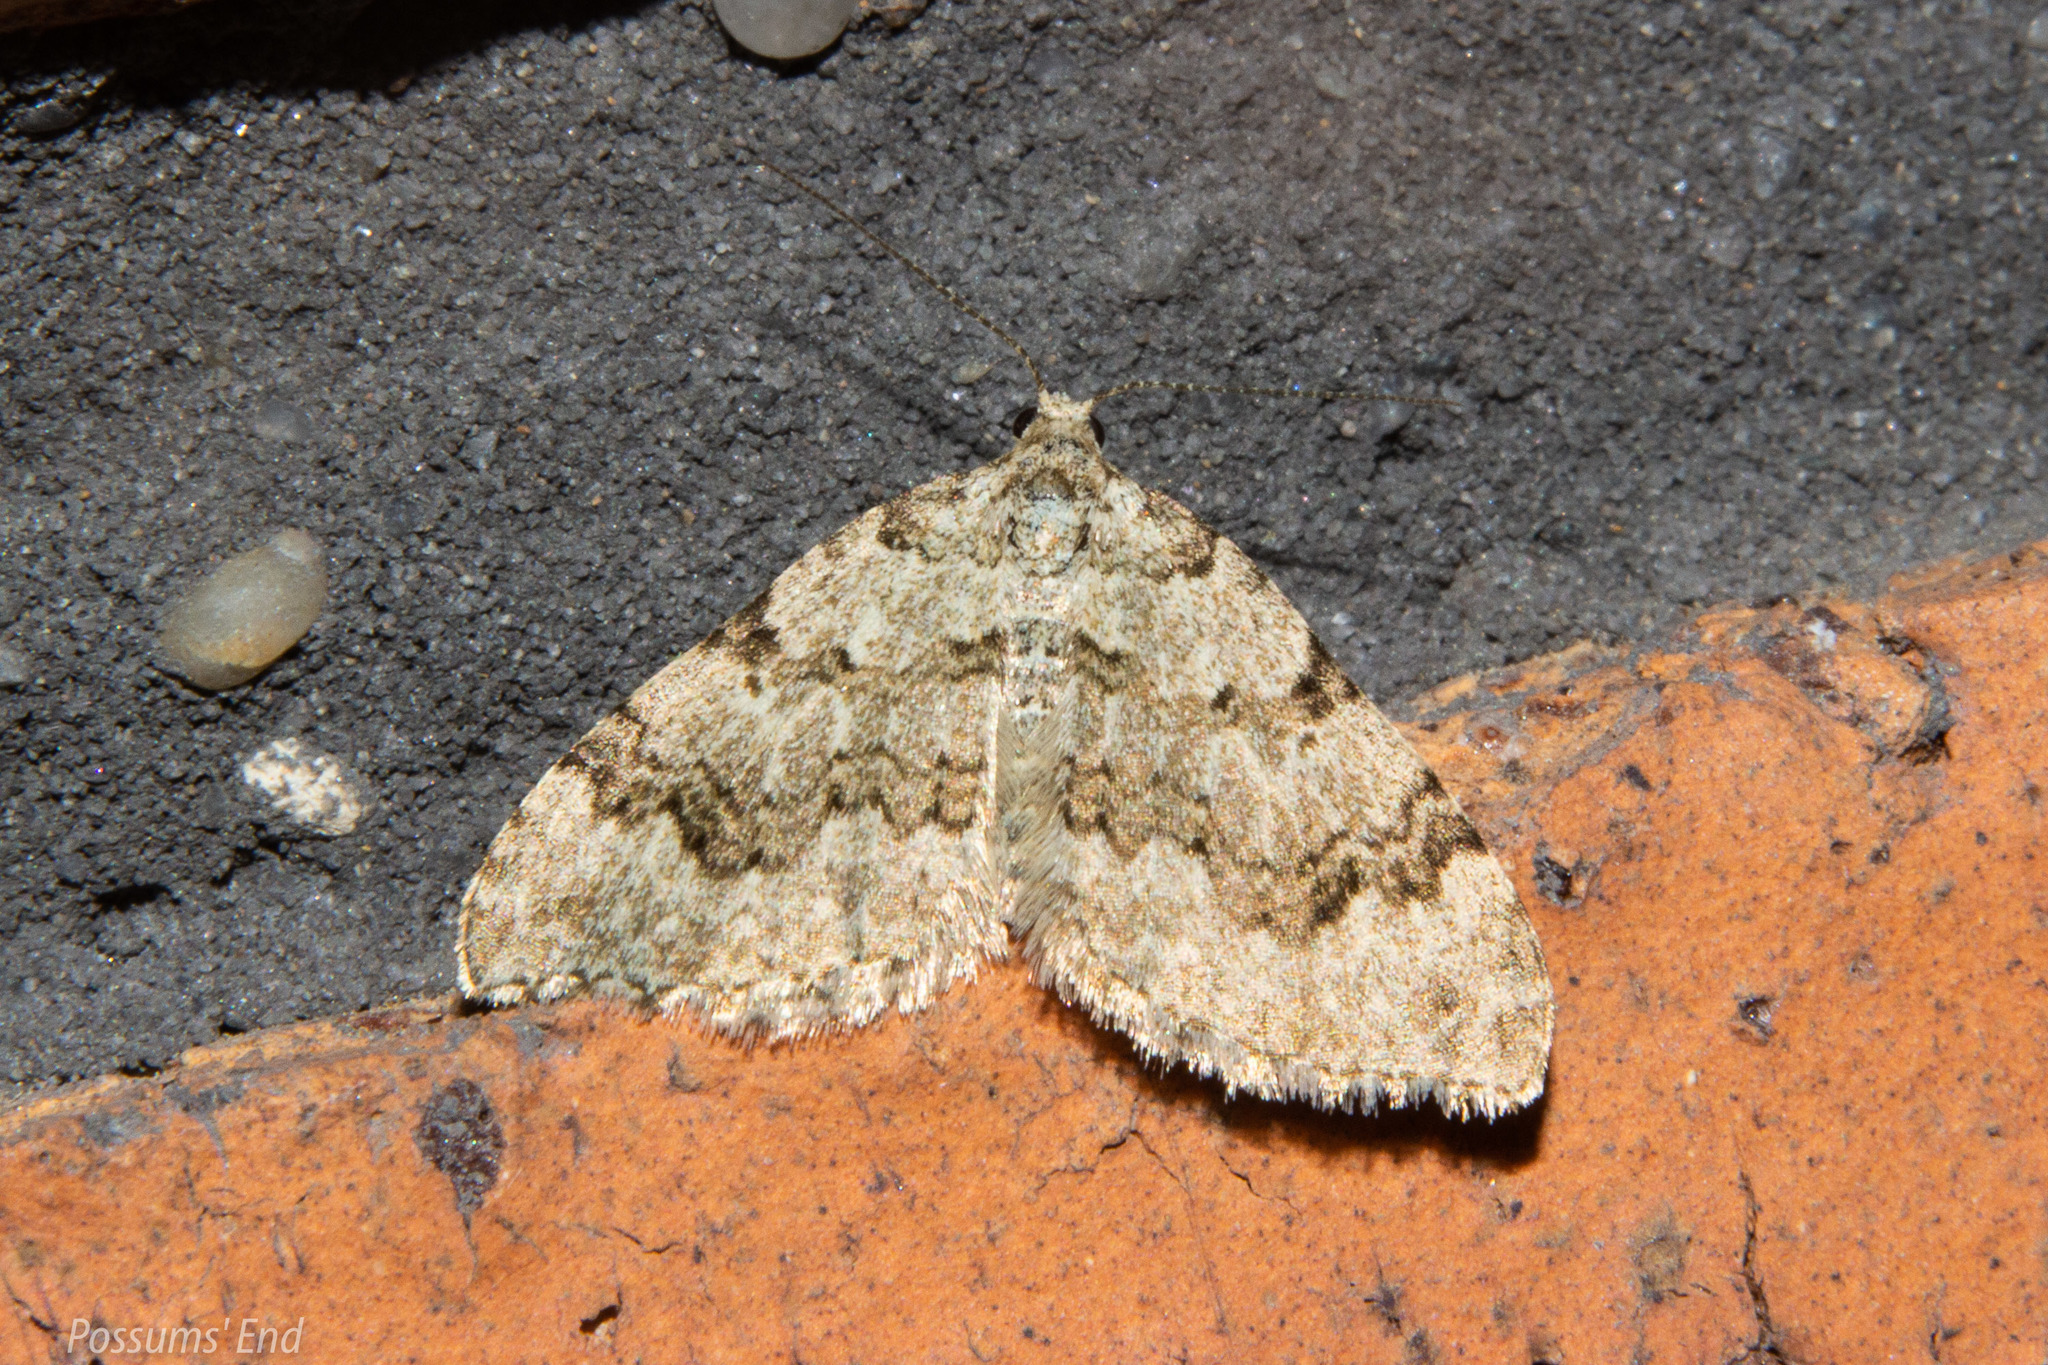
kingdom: Animalia
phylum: Arthropoda
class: Insecta
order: Lepidoptera
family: Geometridae
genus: Helastia
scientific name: Helastia cinerearia
